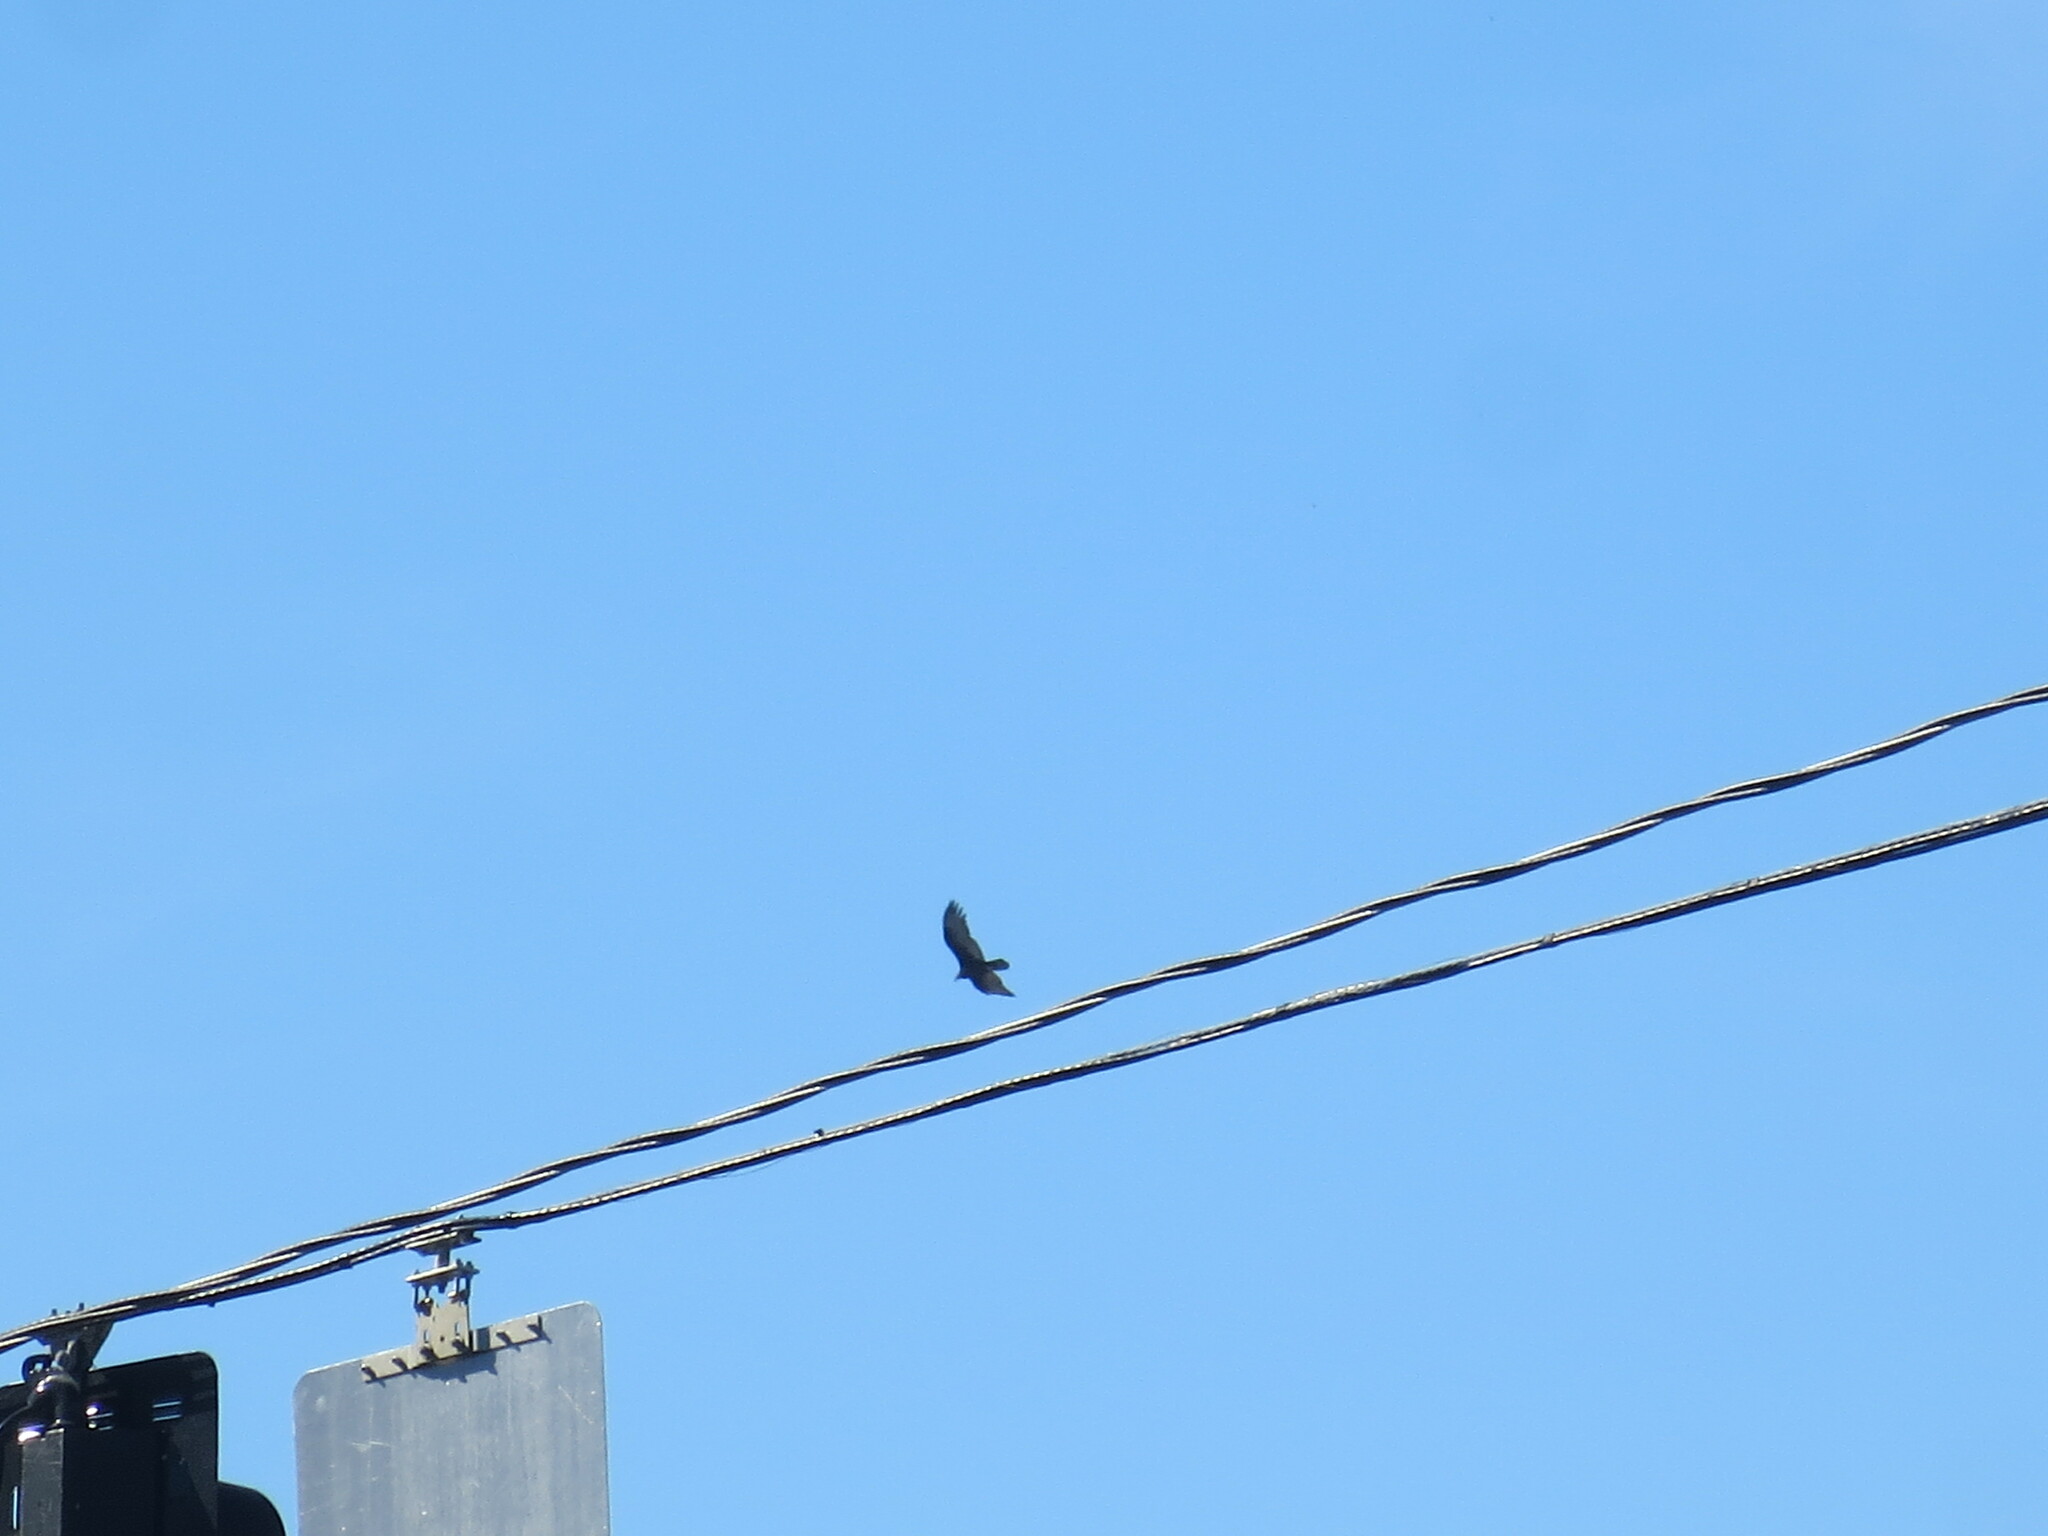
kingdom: Animalia
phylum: Chordata
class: Aves
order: Accipitriformes
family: Cathartidae
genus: Cathartes
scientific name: Cathartes aura
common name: Turkey vulture
